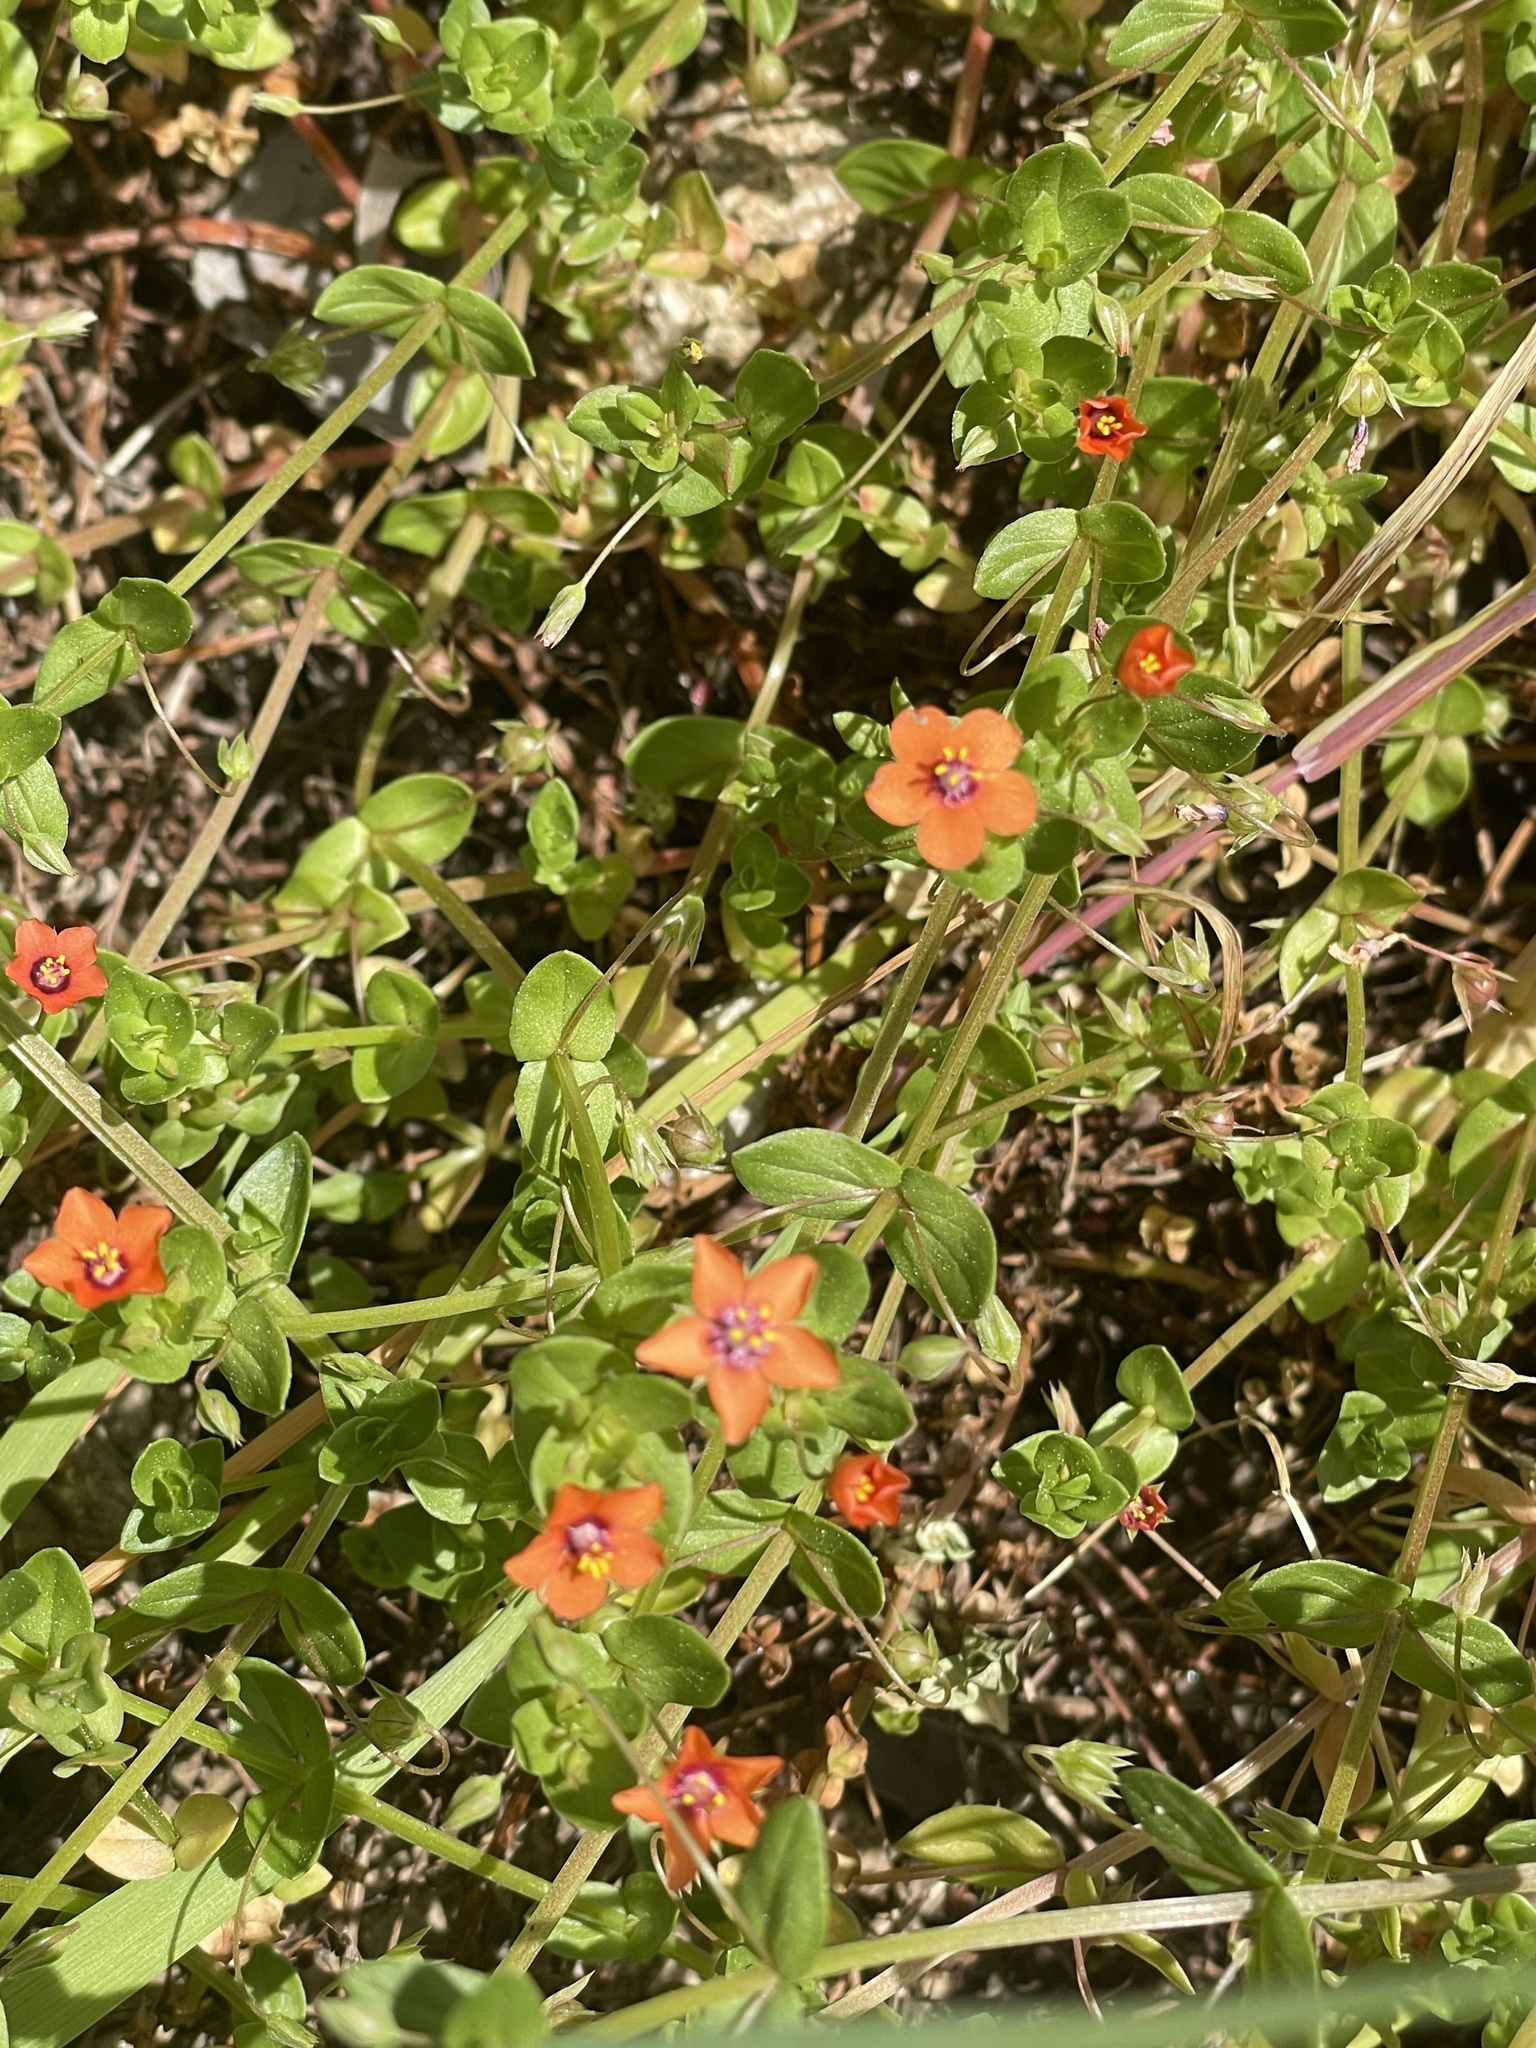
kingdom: Plantae
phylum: Tracheophyta
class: Magnoliopsida
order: Ericales
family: Primulaceae
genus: Lysimachia
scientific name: Lysimachia arvensis
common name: Scarlet pimpernel
